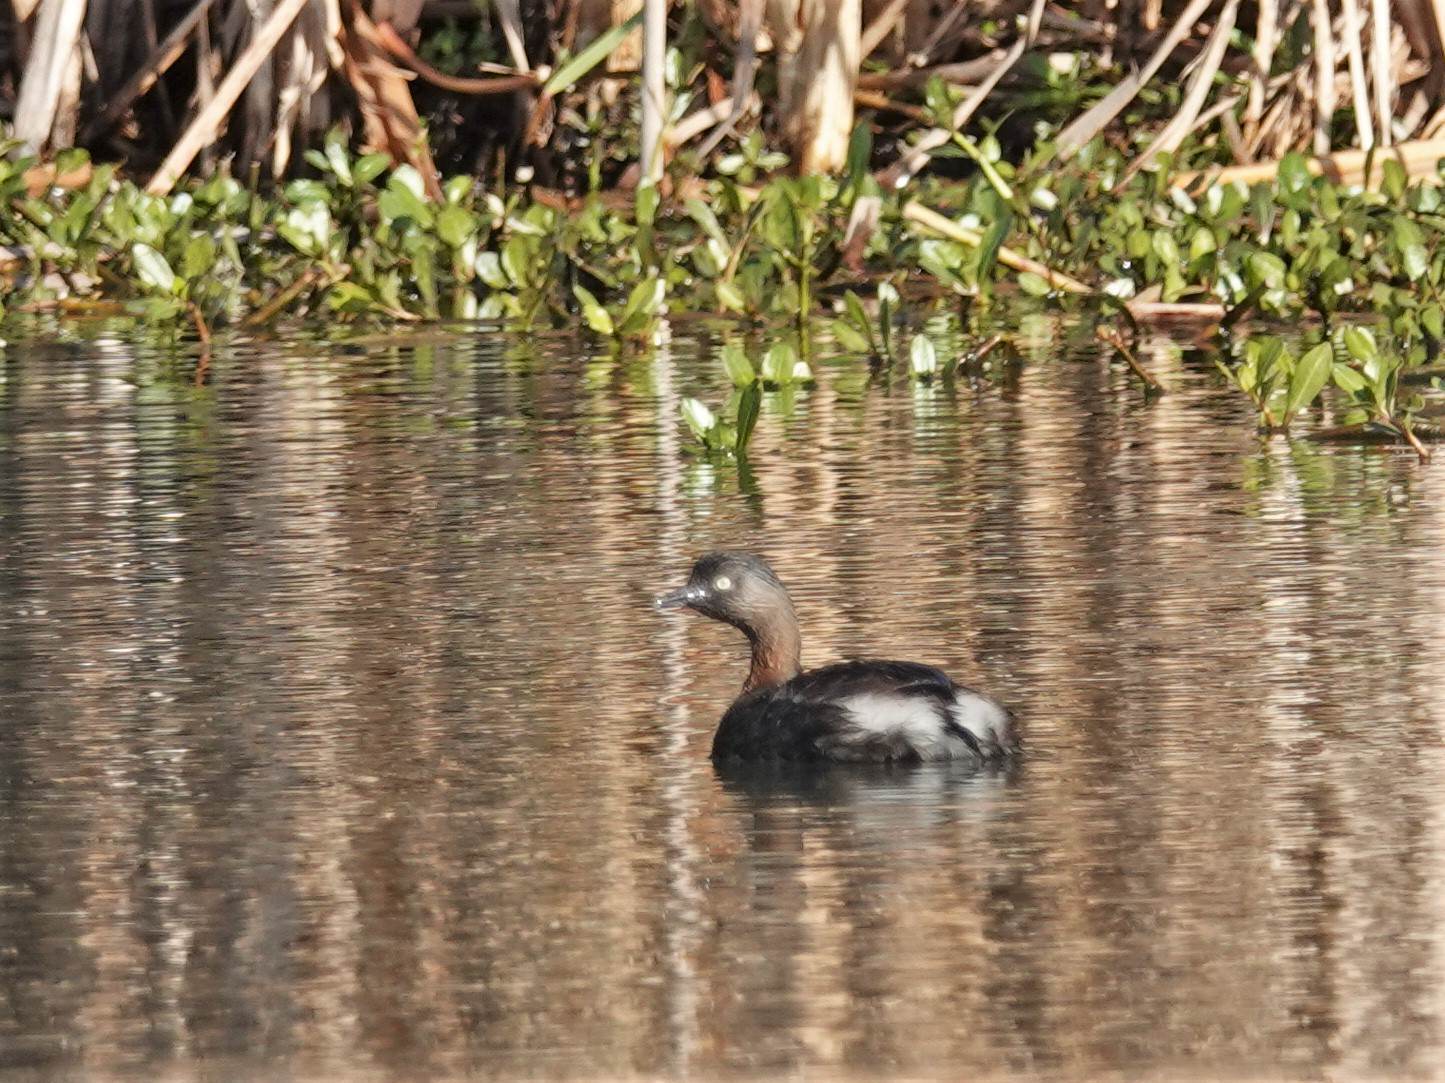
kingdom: Animalia
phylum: Chordata
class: Aves
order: Podicipediformes
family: Podicipedidae
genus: Poliocephalus
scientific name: Poliocephalus rufopectus
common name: New zealand grebe
